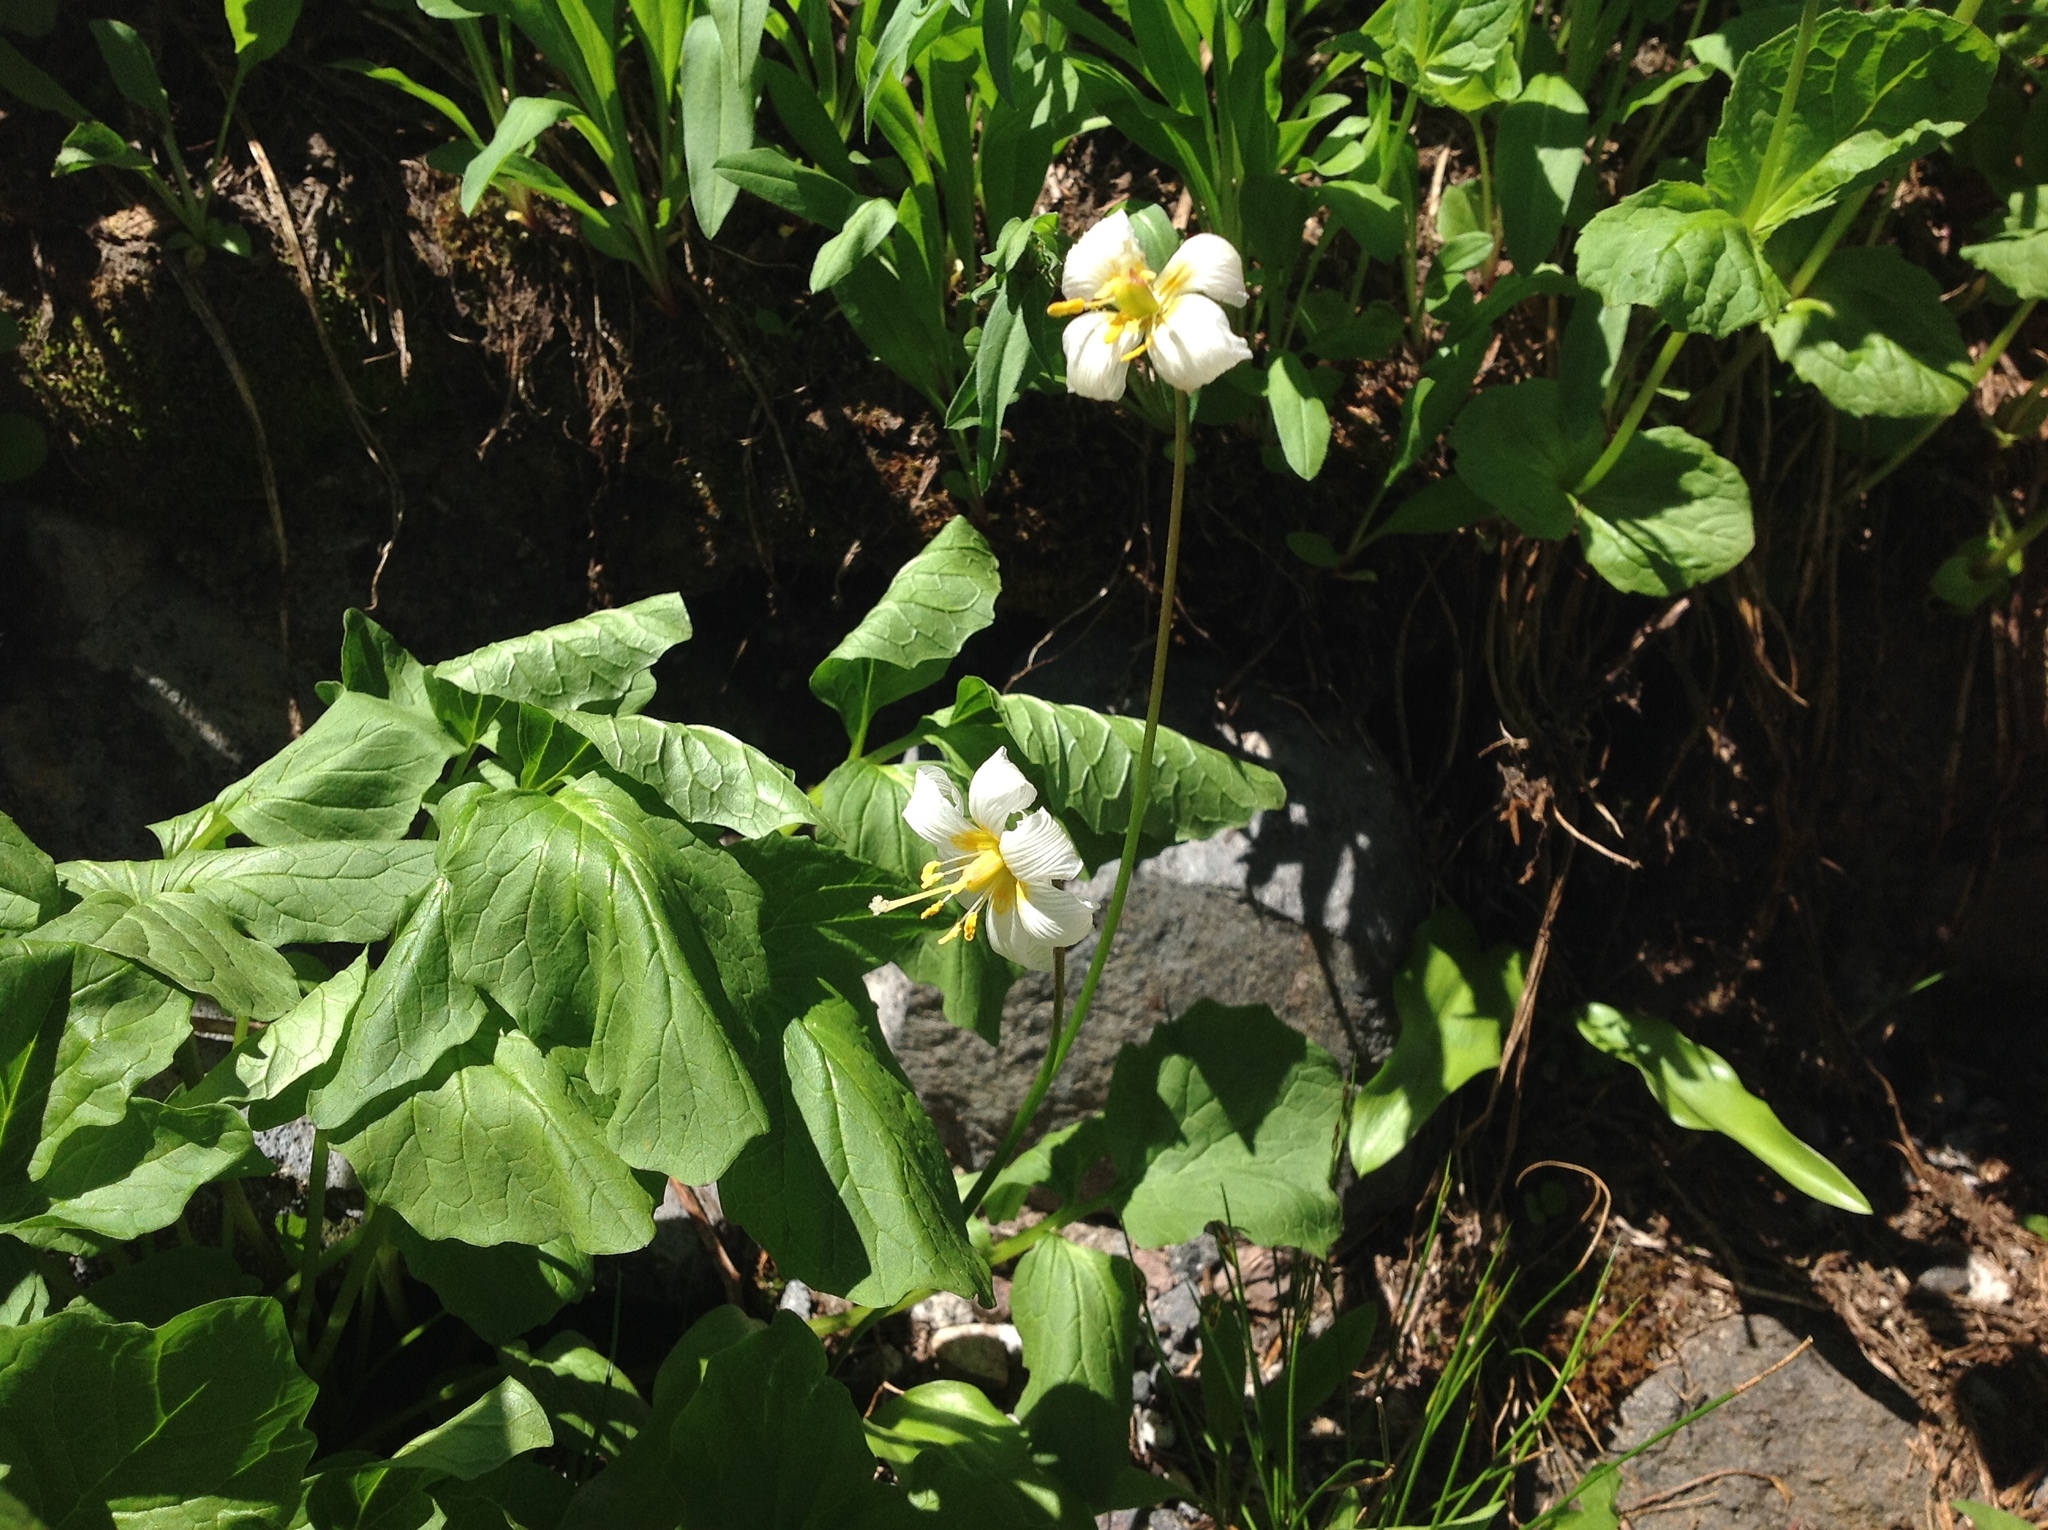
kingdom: Plantae
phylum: Tracheophyta
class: Liliopsida
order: Liliales
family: Liliaceae
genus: Erythronium
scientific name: Erythronium montanum
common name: Avalanche lily
